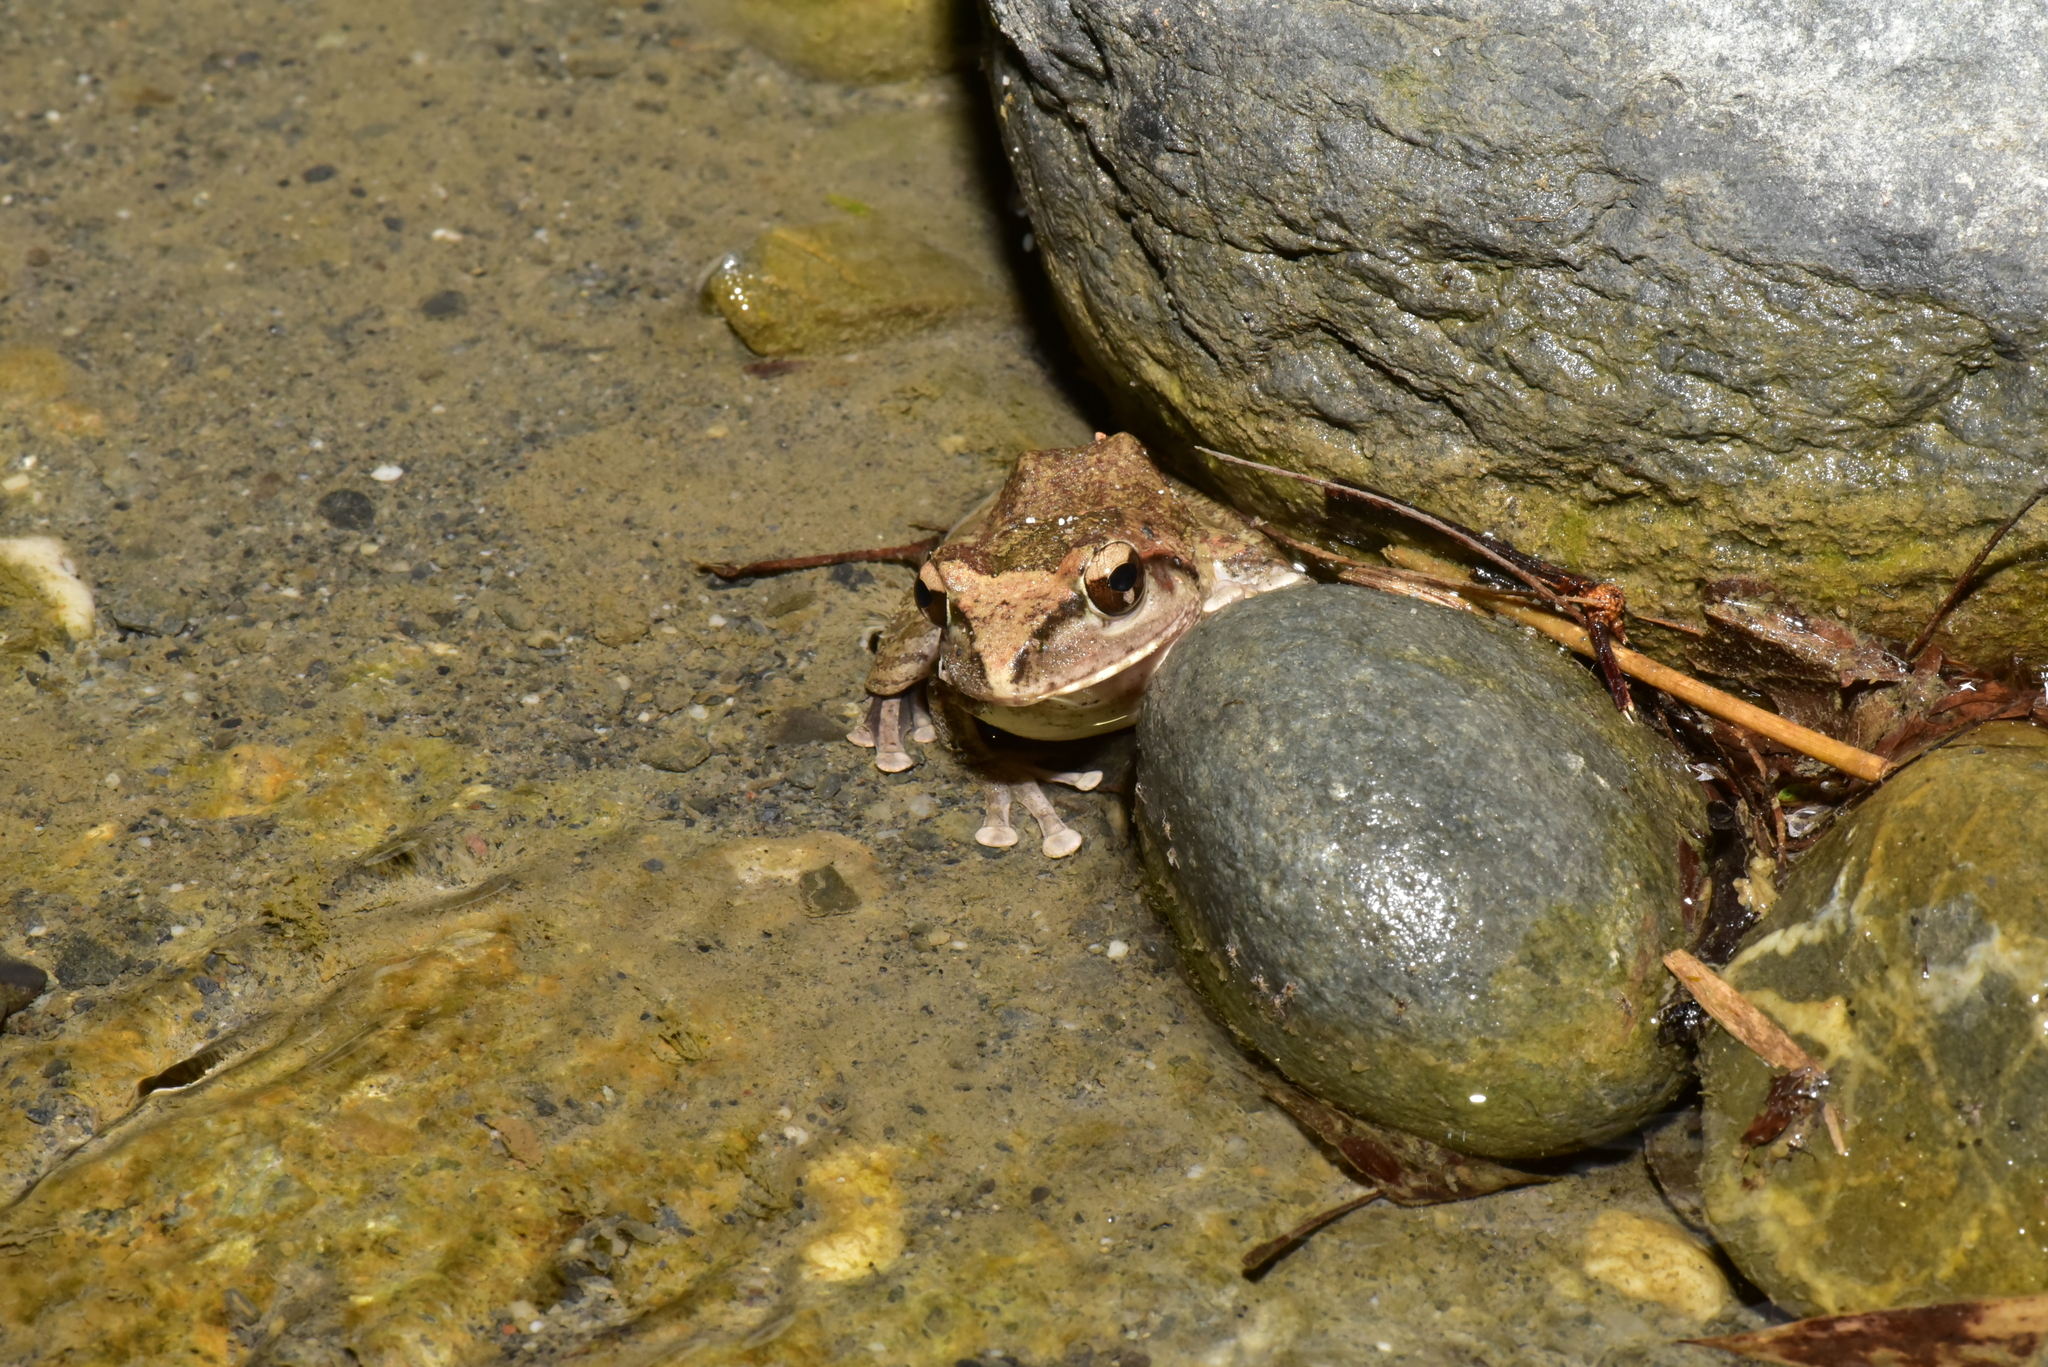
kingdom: Animalia
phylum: Chordata
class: Amphibia
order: Anura
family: Rhacophoridae
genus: Buergeria
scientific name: Buergeria robusta
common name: Brown treefrog
